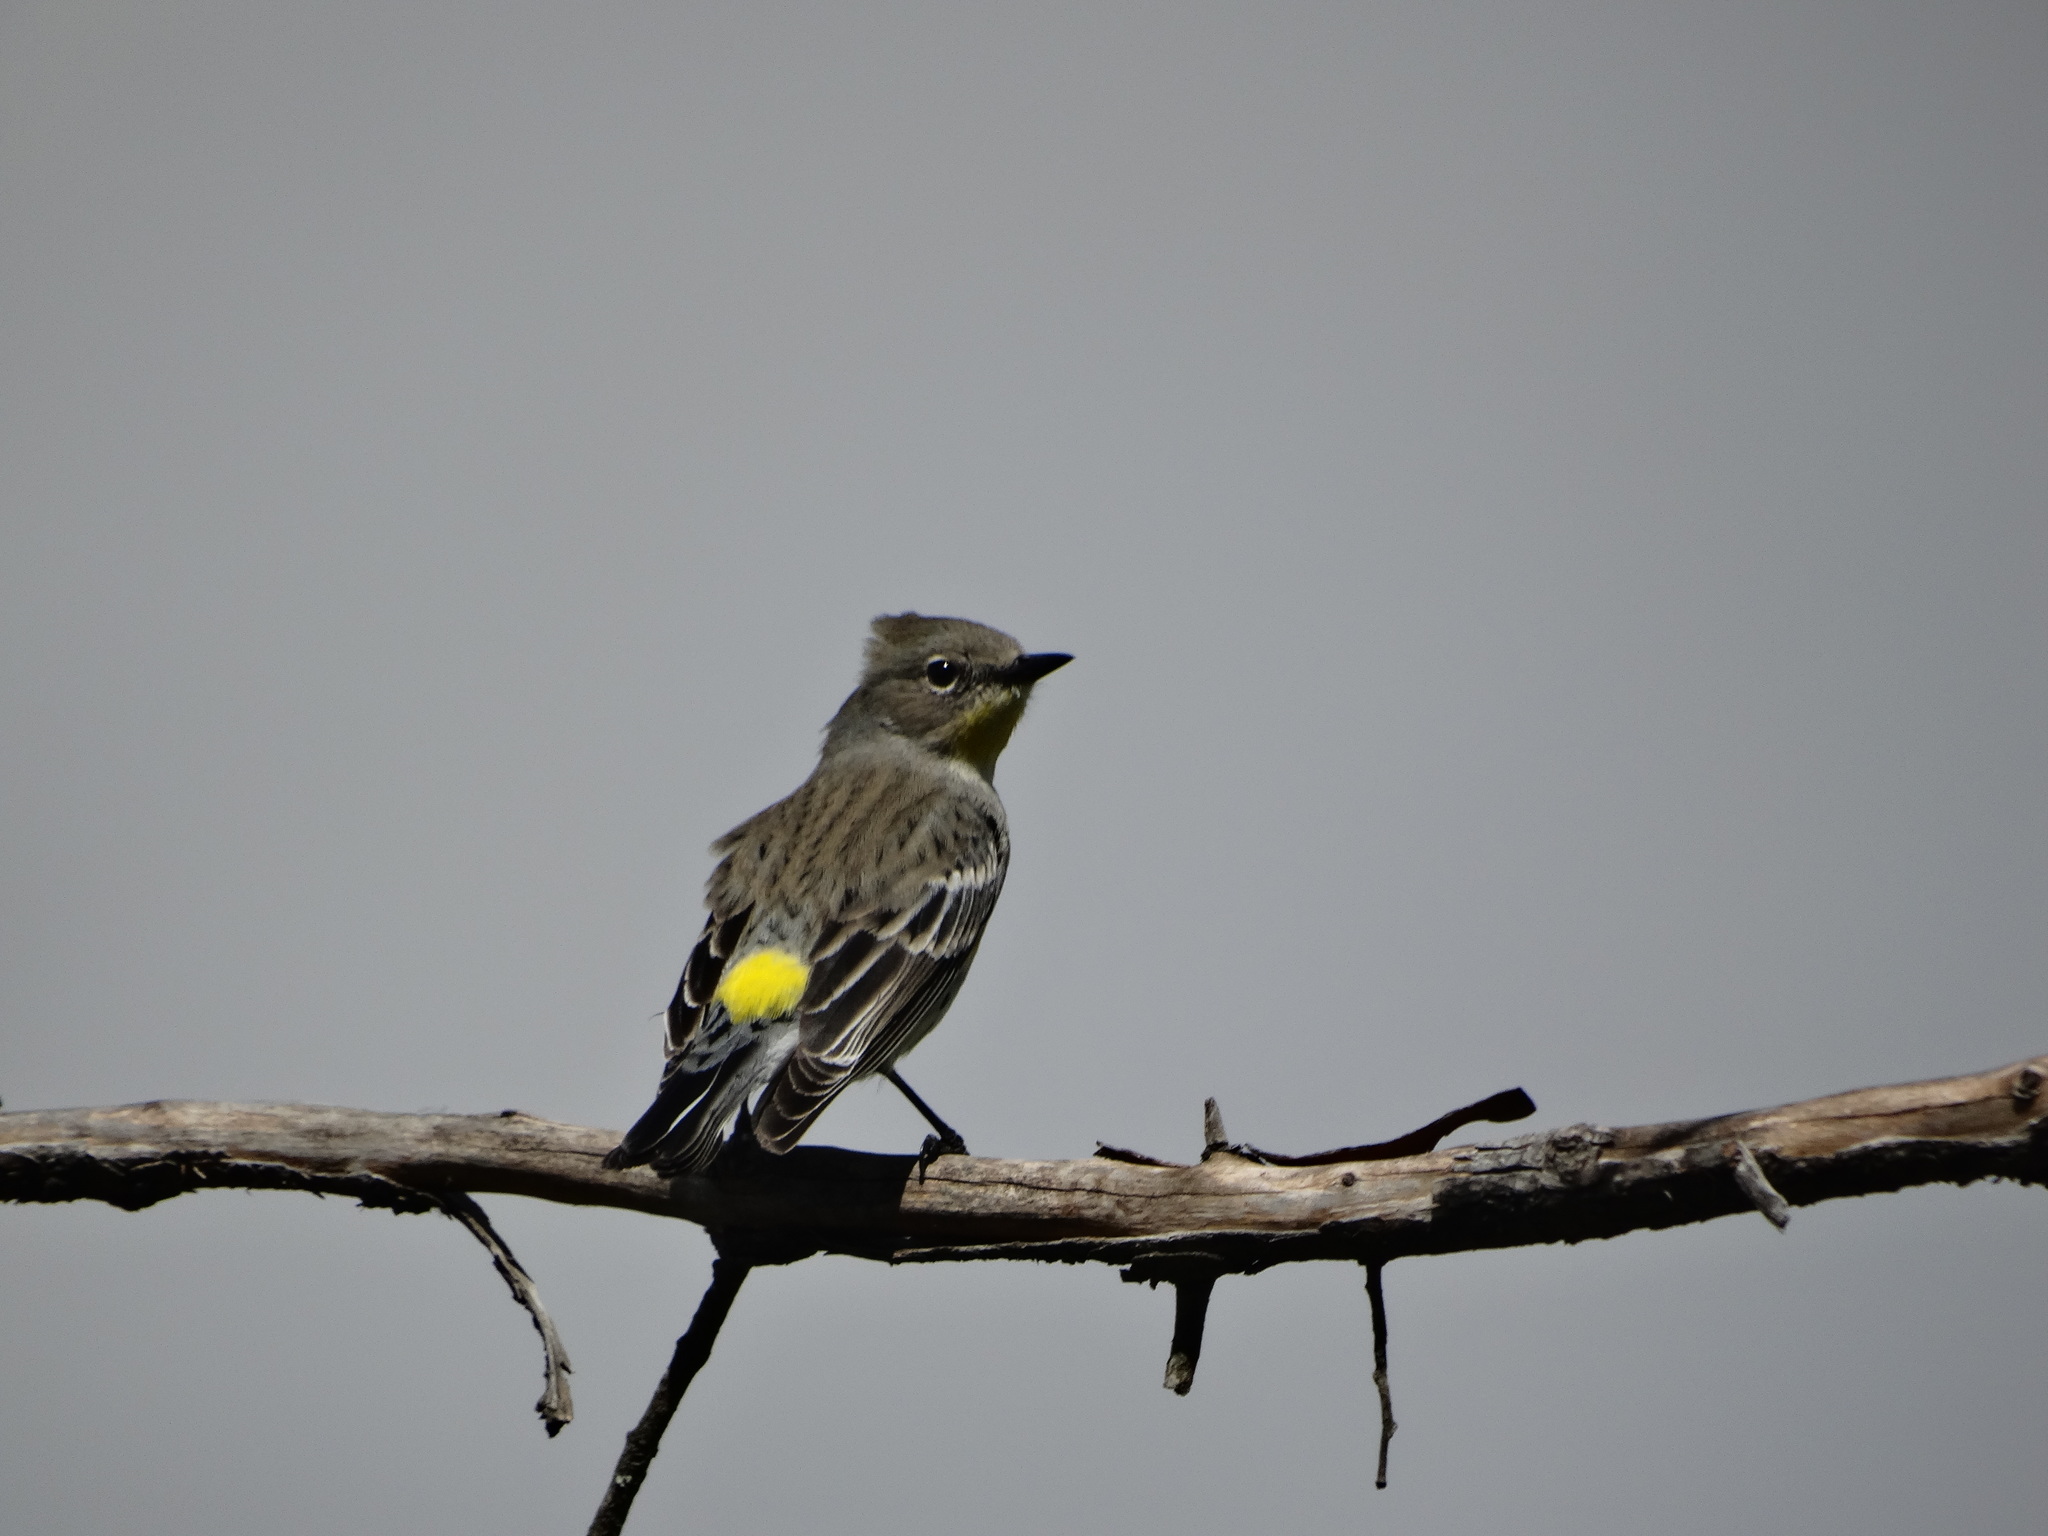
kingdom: Animalia
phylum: Chordata
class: Aves
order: Passeriformes
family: Parulidae
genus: Setophaga
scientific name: Setophaga coronata
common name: Myrtle warbler
